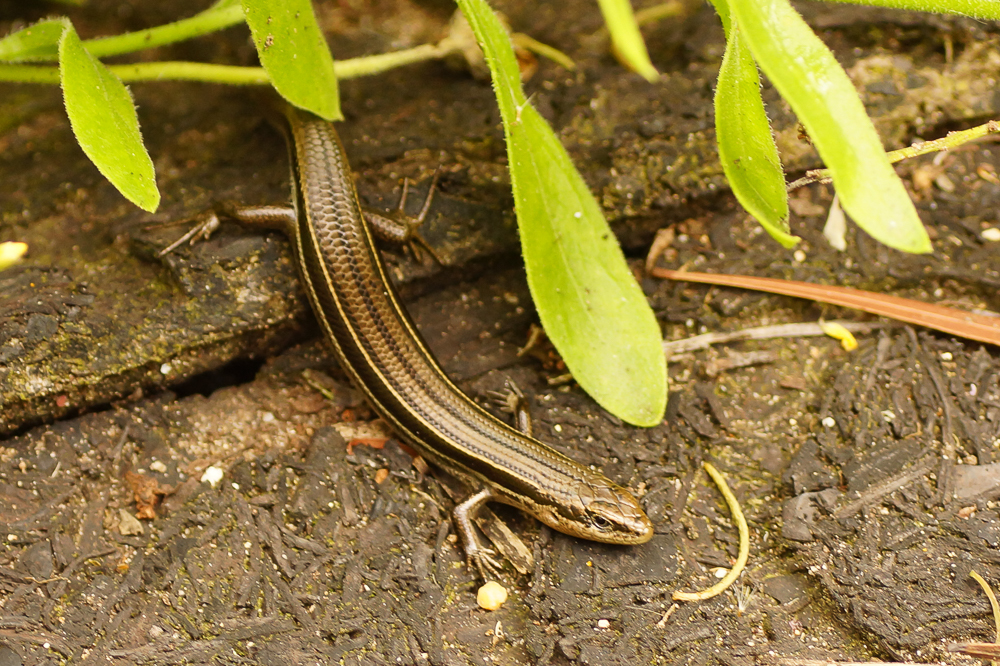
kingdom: Animalia
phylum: Chordata
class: Squamata
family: Scincidae
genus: Acritoscincus
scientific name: Acritoscincus duperreyi
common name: Bold-striped cool-skink
